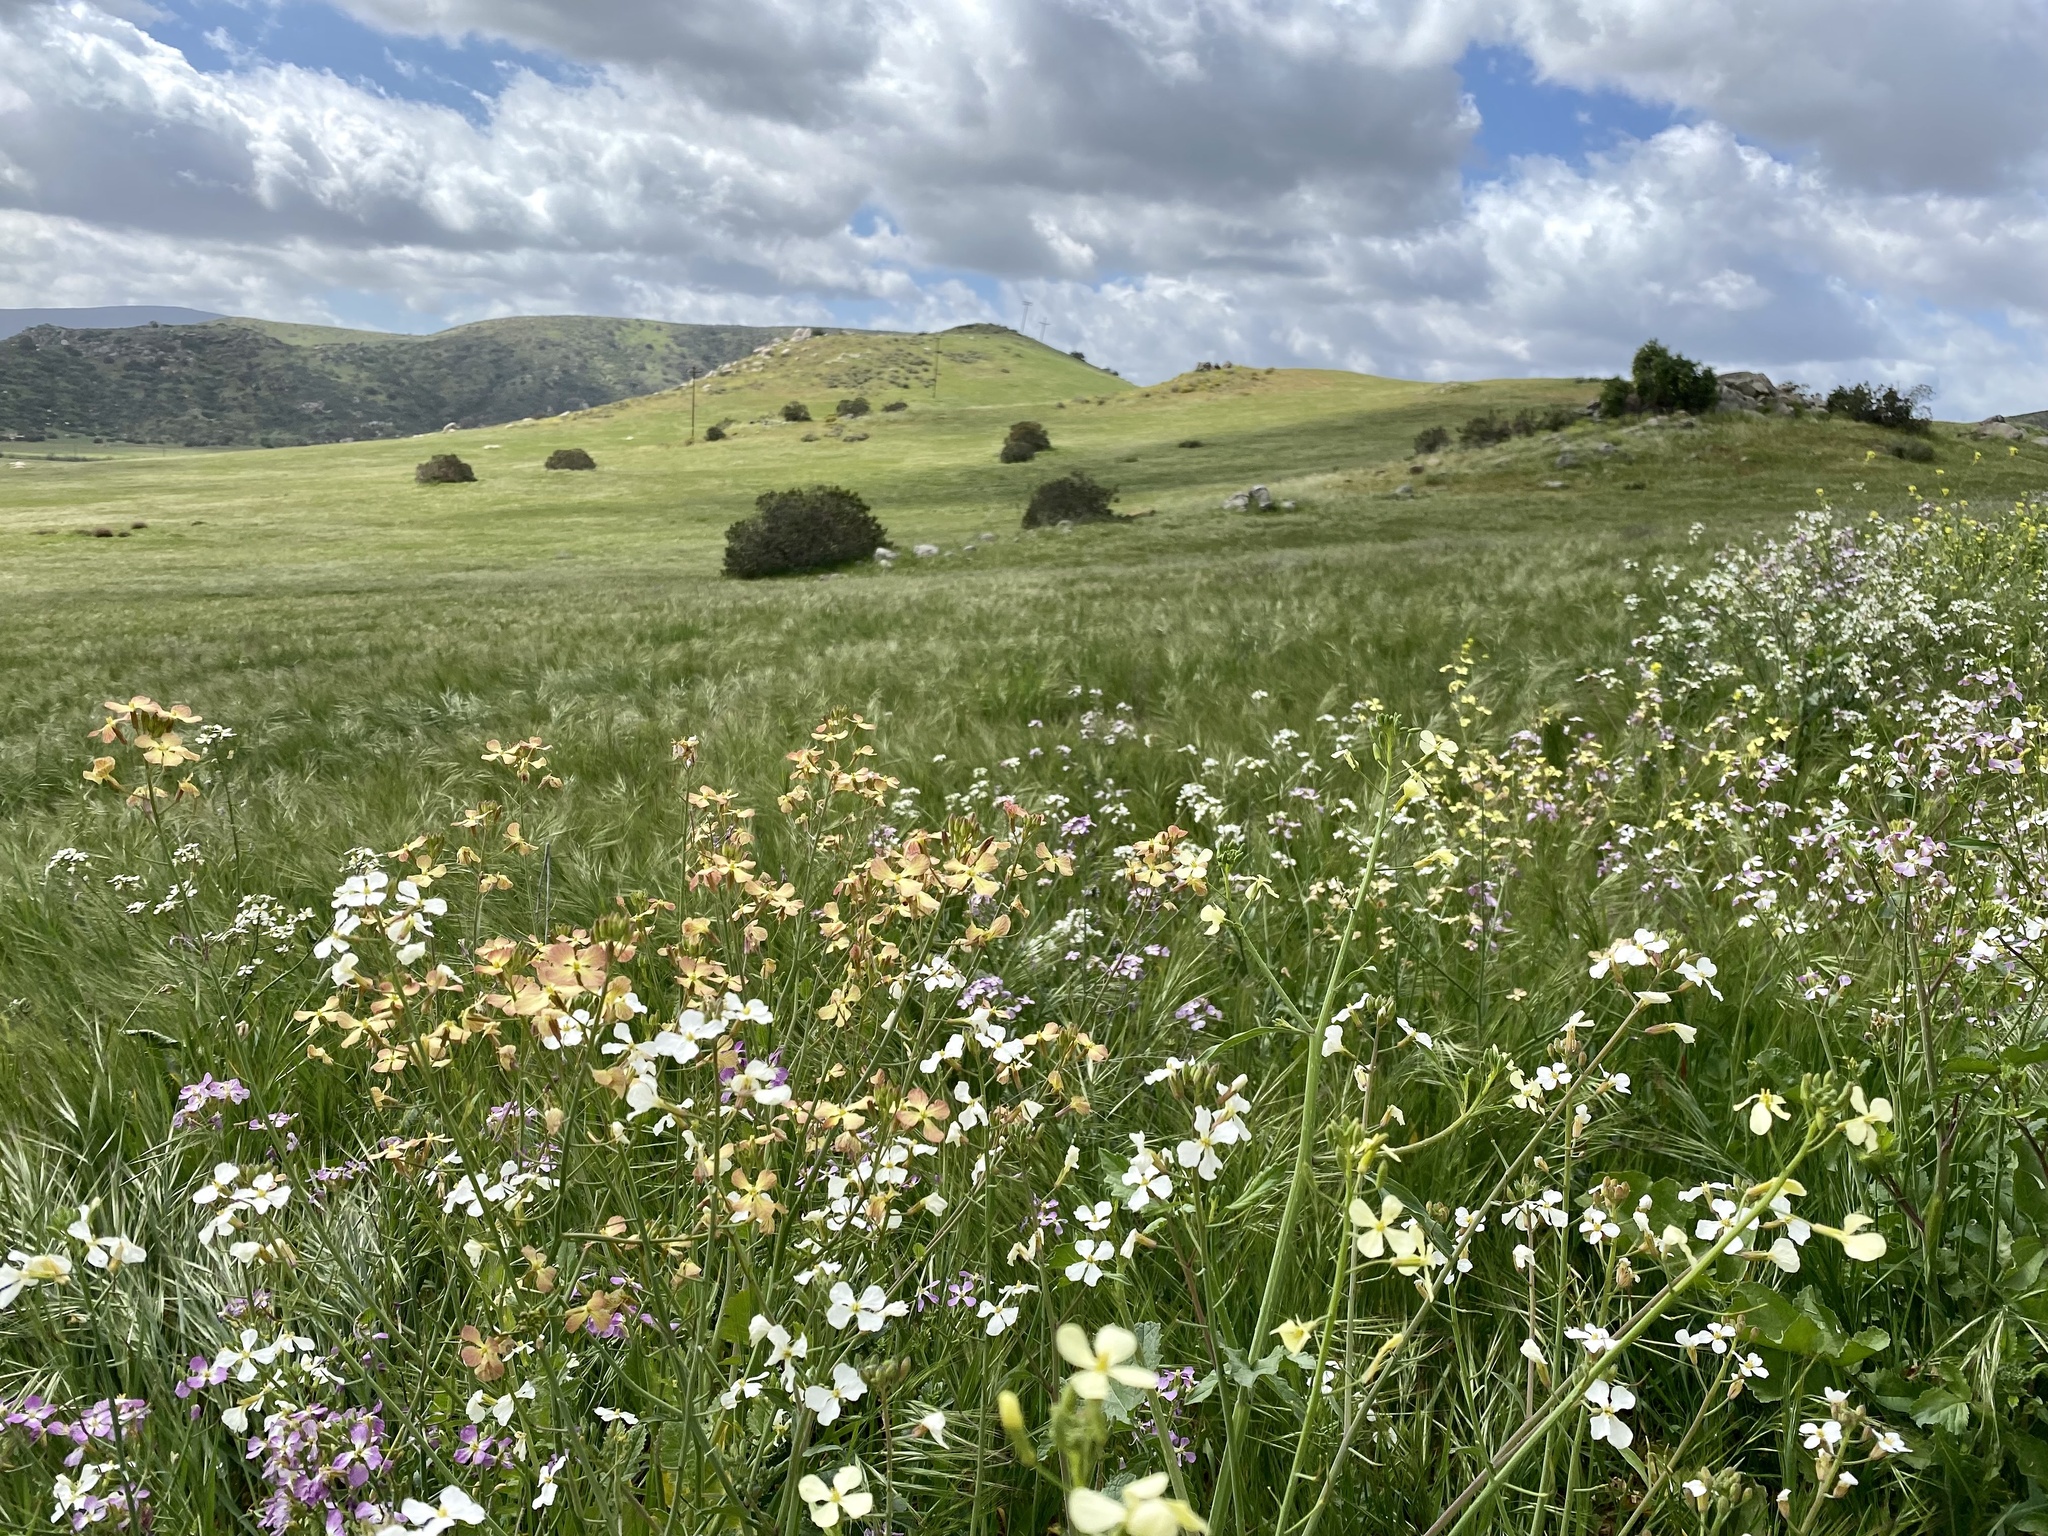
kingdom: Plantae
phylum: Tracheophyta
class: Magnoliopsida
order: Brassicales
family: Brassicaceae
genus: Raphanus
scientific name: Raphanus sativus
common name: Cultivated radish
